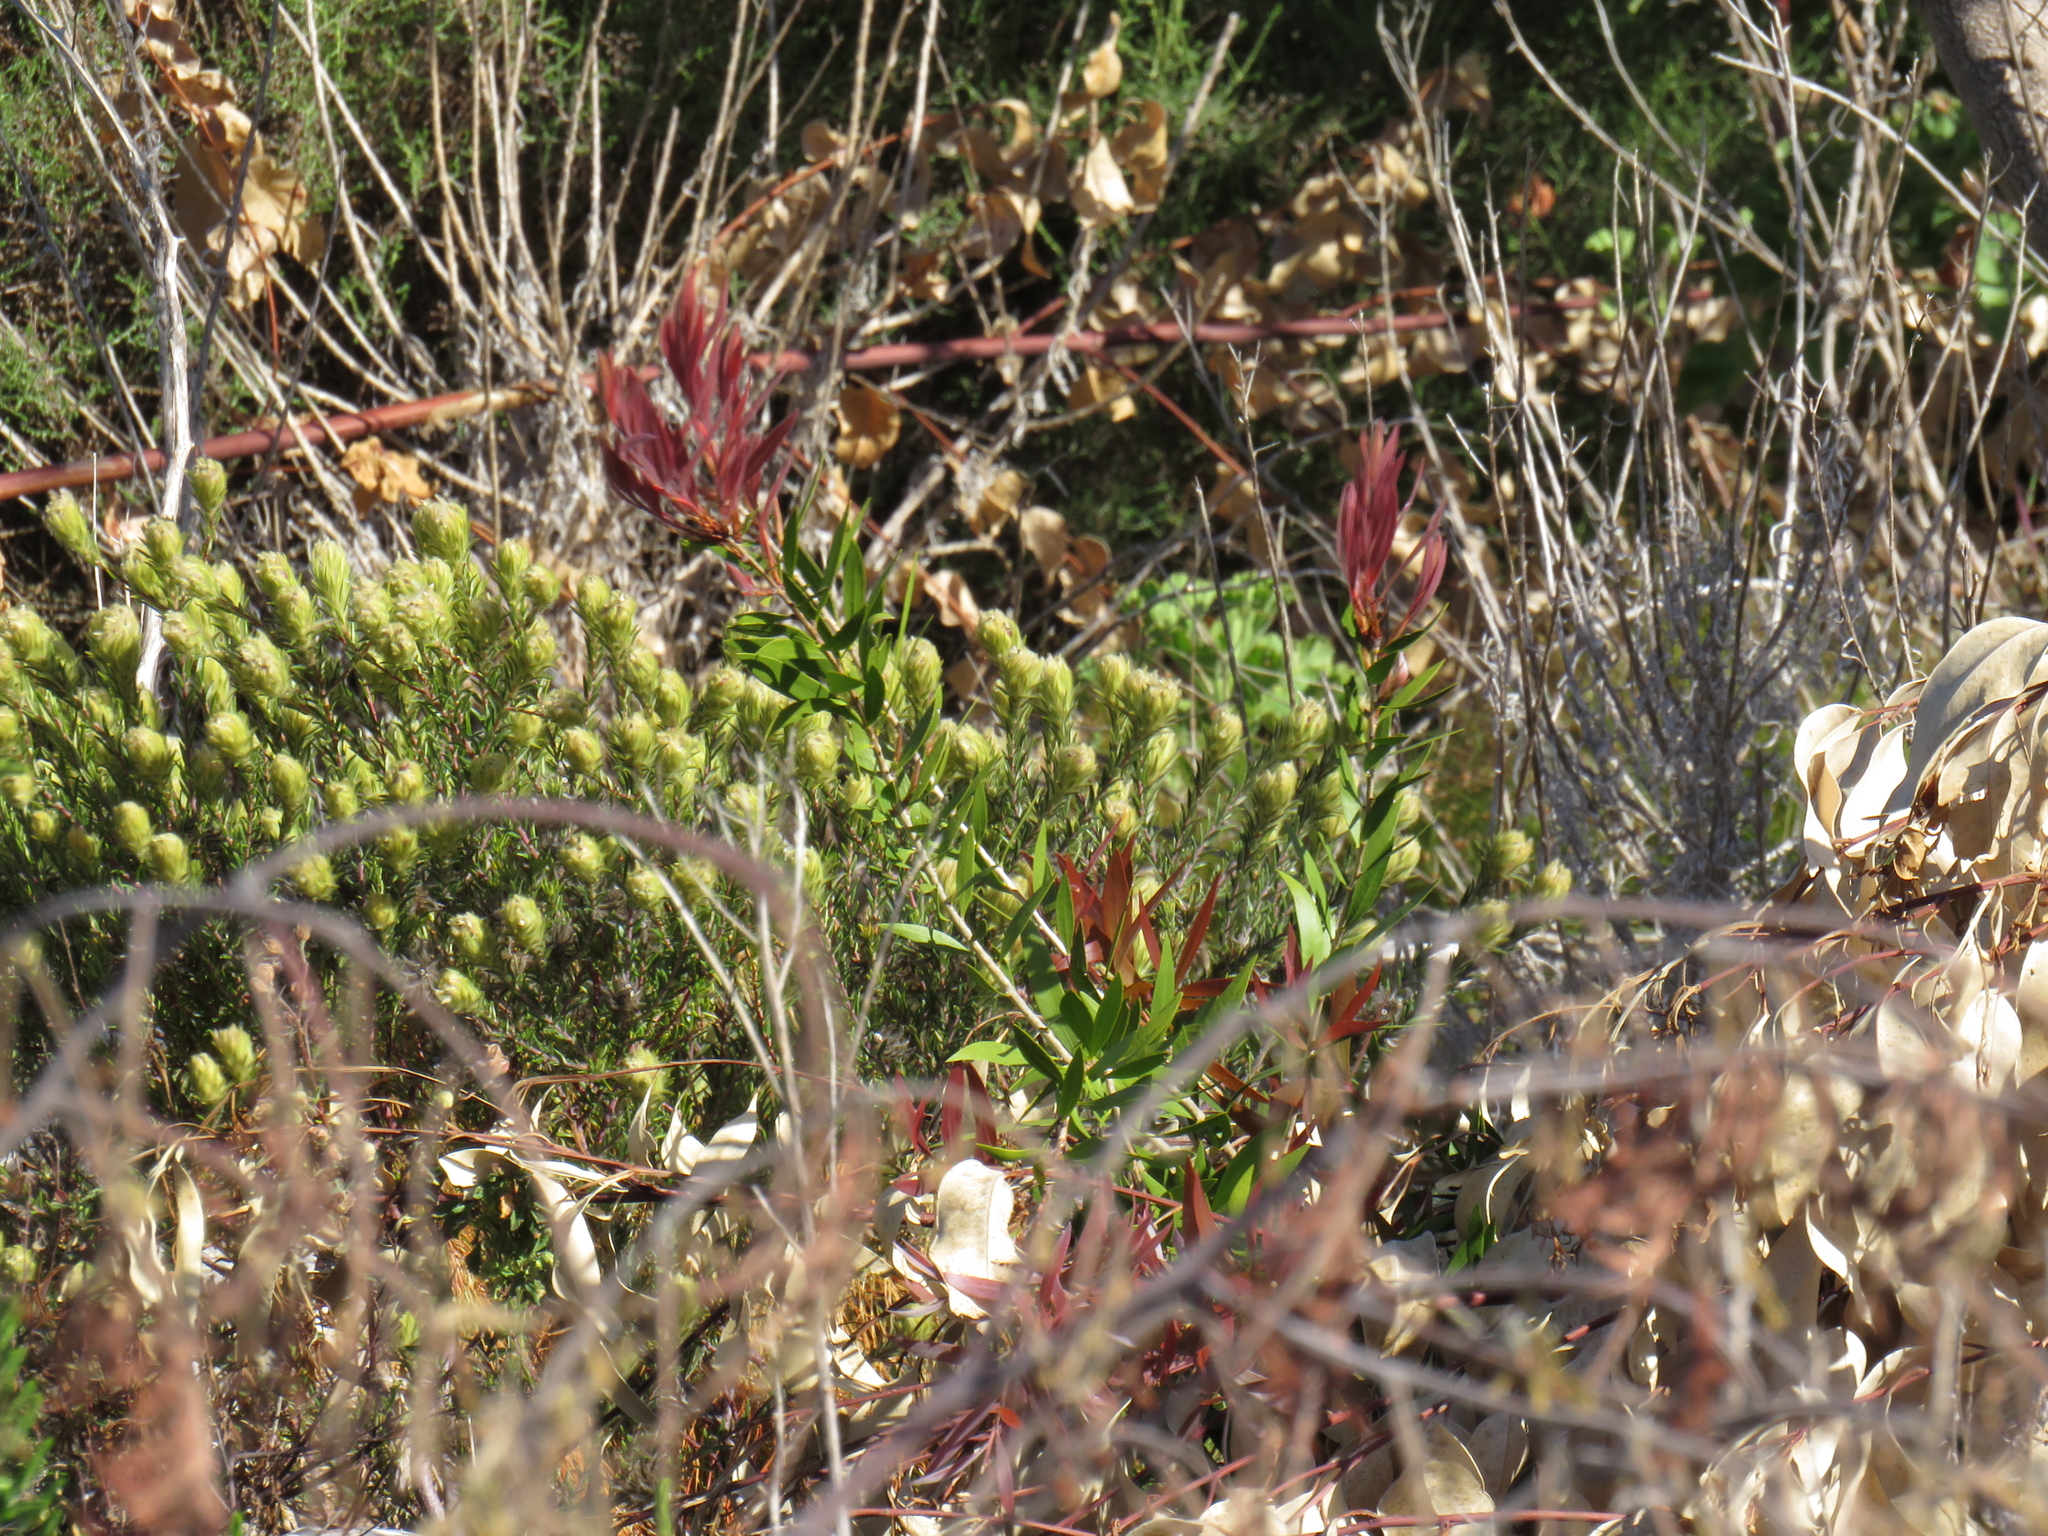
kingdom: Plantae
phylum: Tracheophyta
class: Magnoliopsida
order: Rosales
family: Rhamnaceae
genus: Phylica
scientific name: Phylica plumosa
